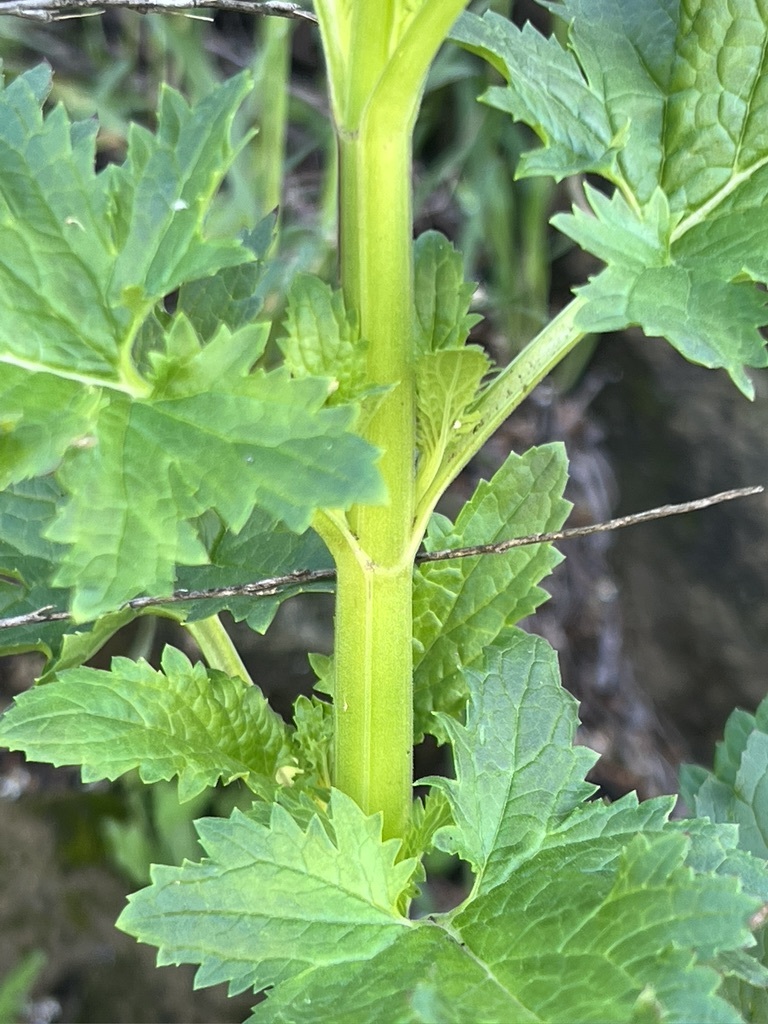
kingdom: Plantae
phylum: Tracheophyta
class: Magnoliopsida
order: Lamiales
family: Scrophulariaceae
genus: Scrophularia
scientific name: Scrophularia californica
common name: California figwort
